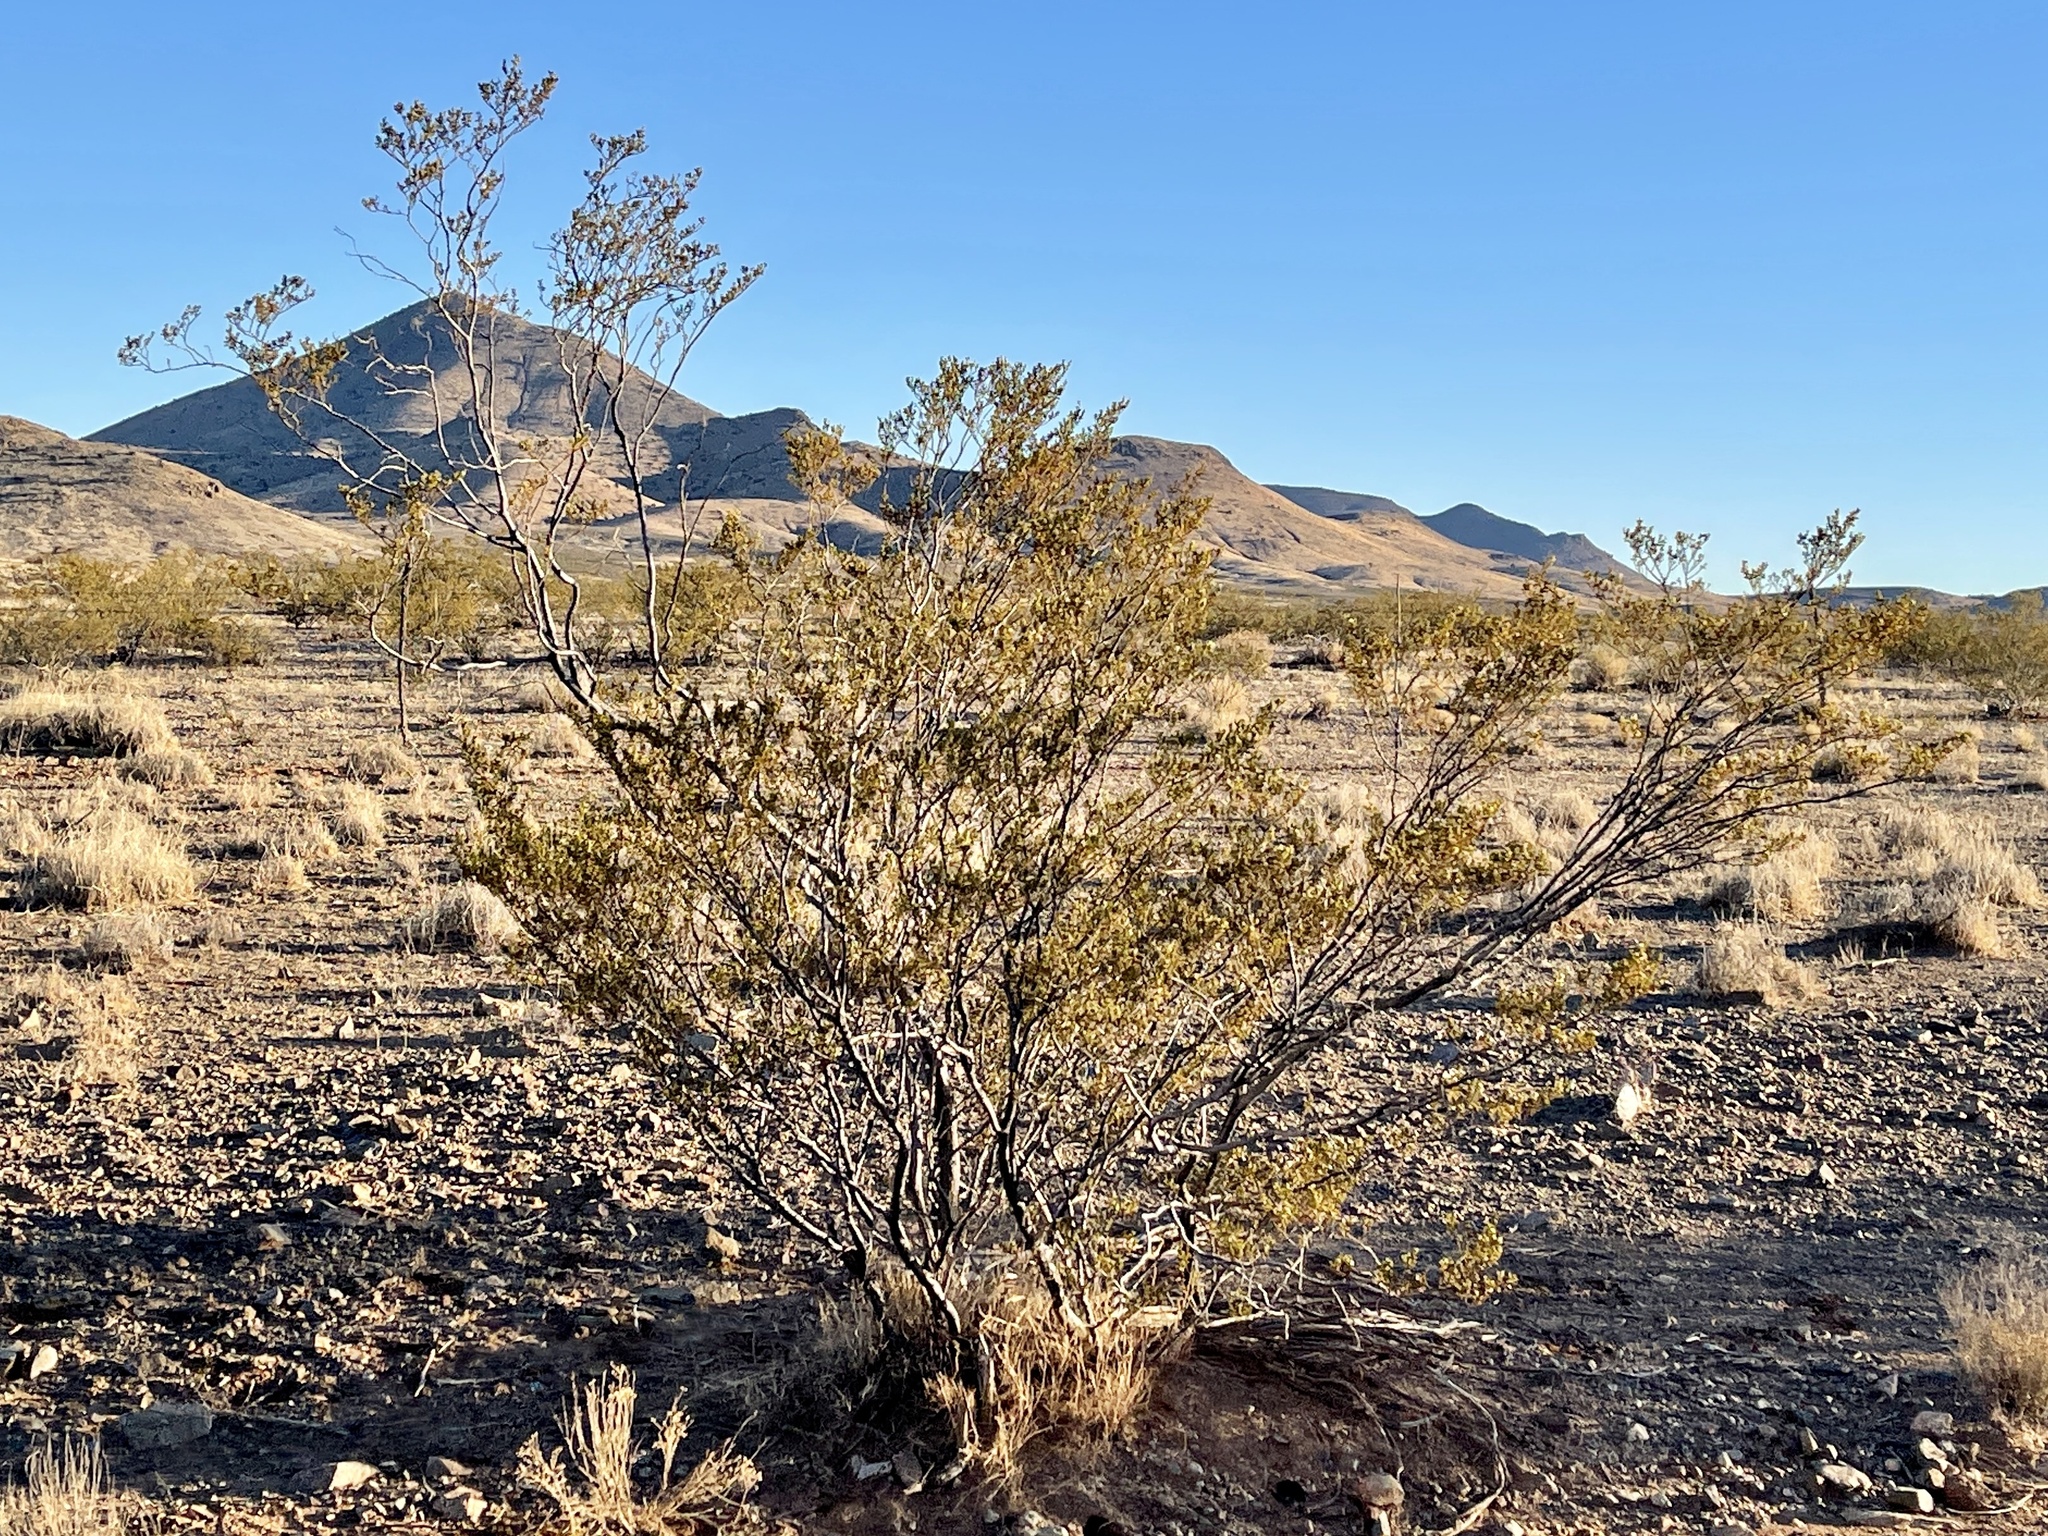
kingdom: Plantae
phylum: Tracheophyta
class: Magnoliopsida
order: Zygophyllales
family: Zygophyllaceae
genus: Larrea
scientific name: Larrea tridentata
